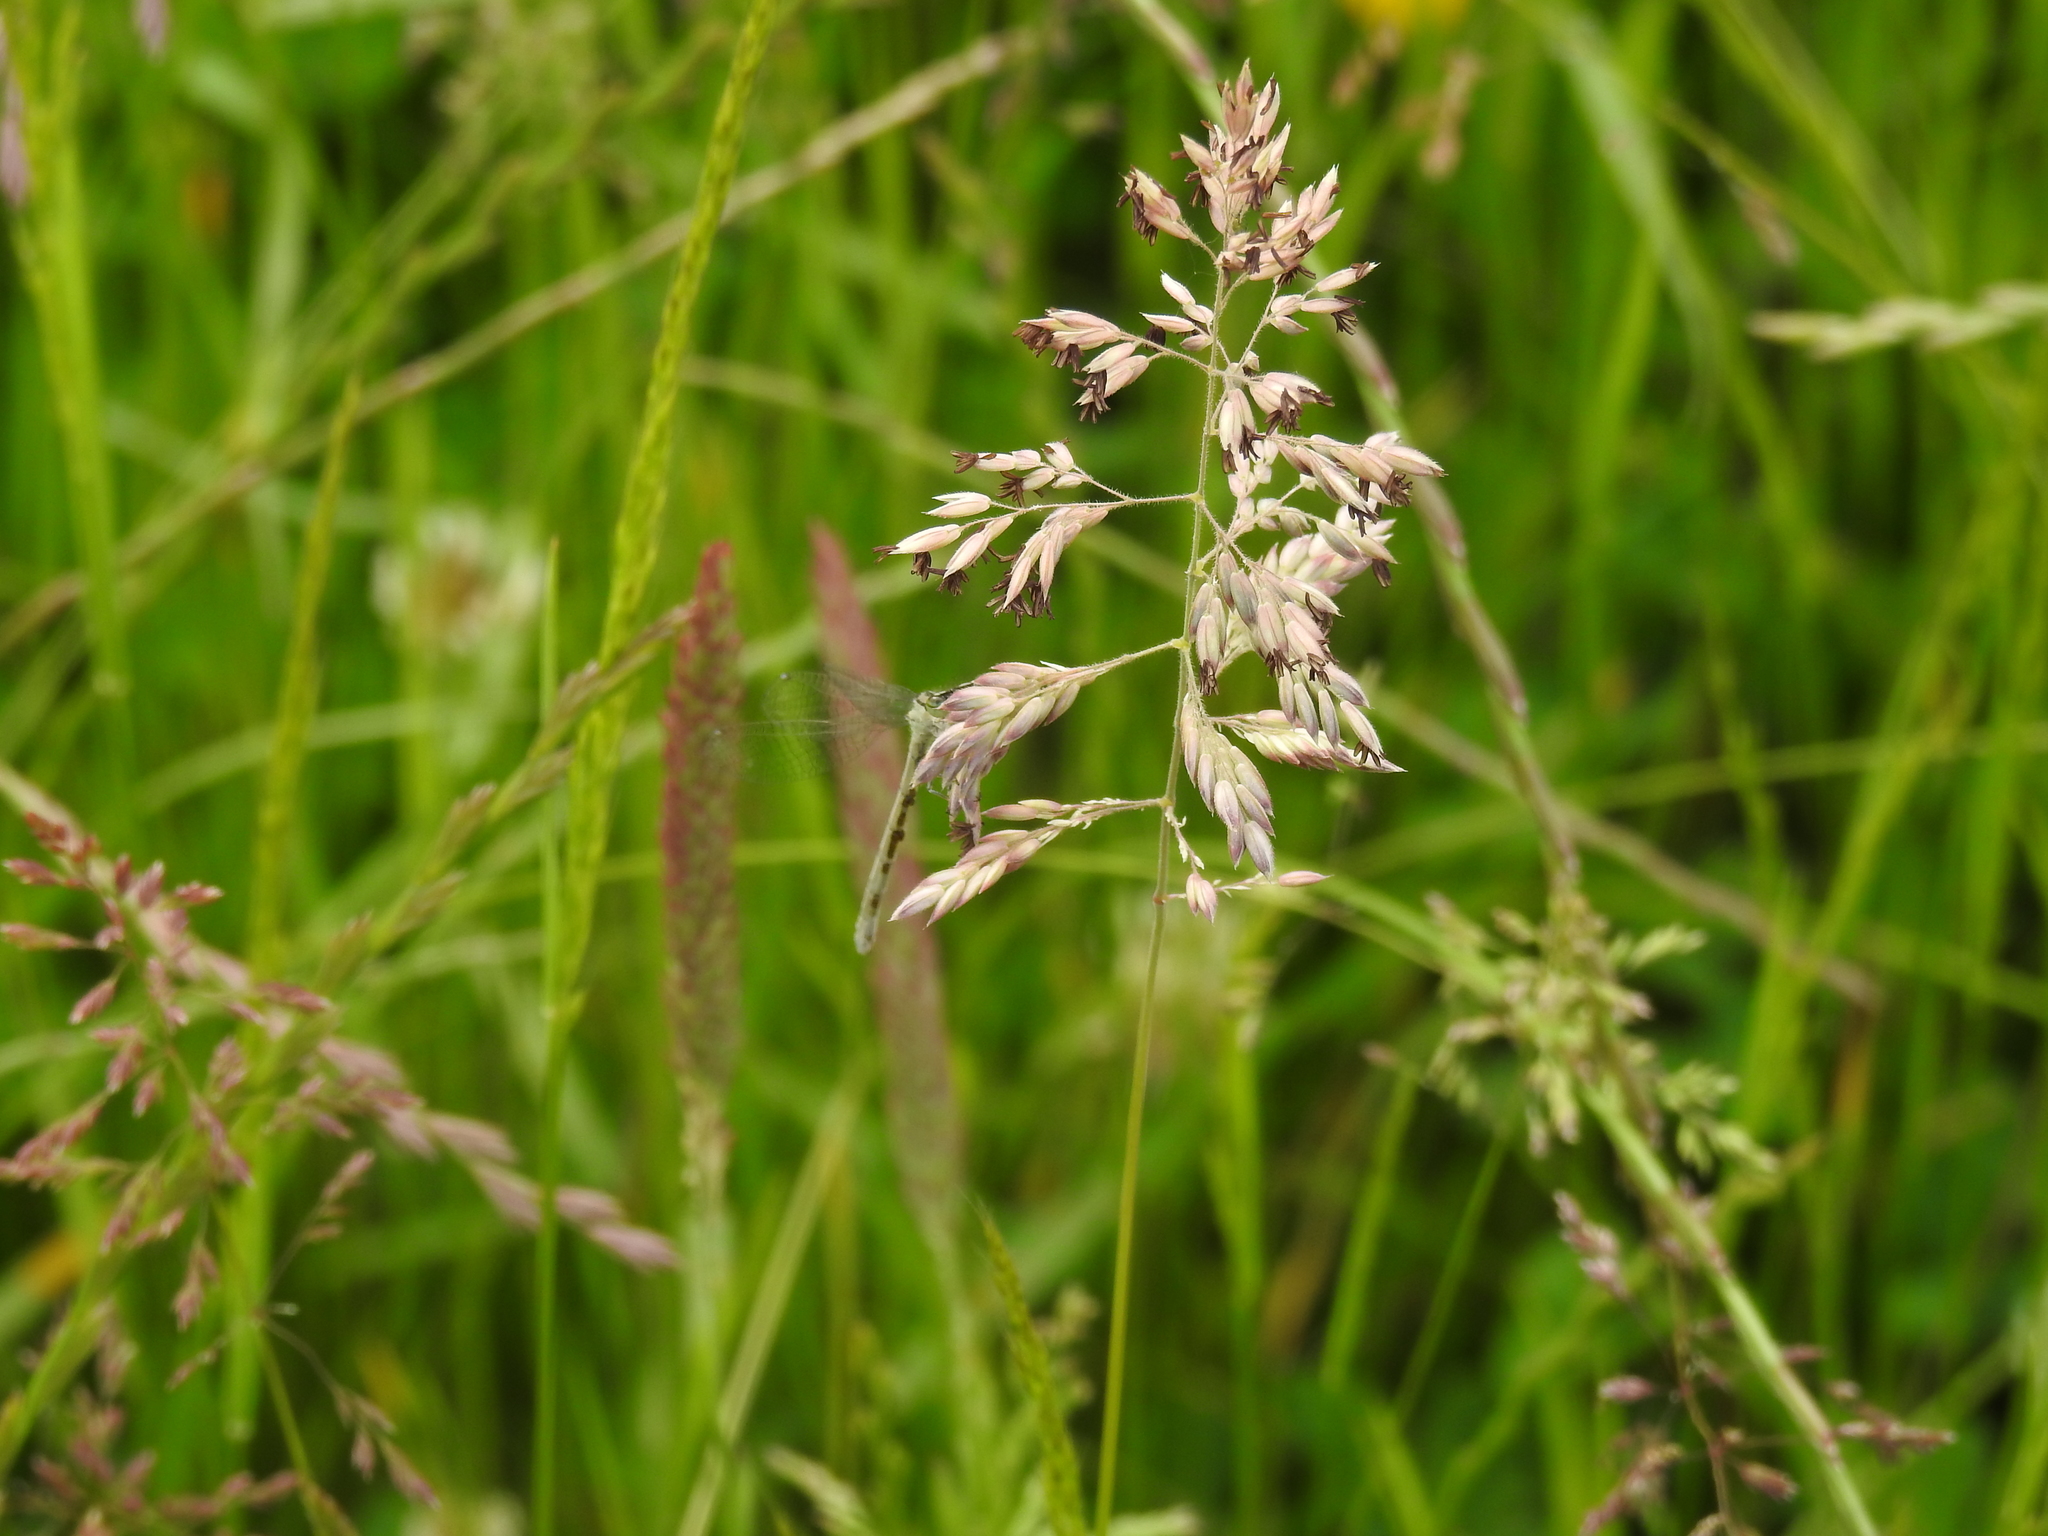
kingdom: Plantae
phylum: Tracheophyta
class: Liliopsida
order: Poales
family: Poaceae
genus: Holcus
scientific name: Holcus lanatus
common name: Yorkshire-fog
